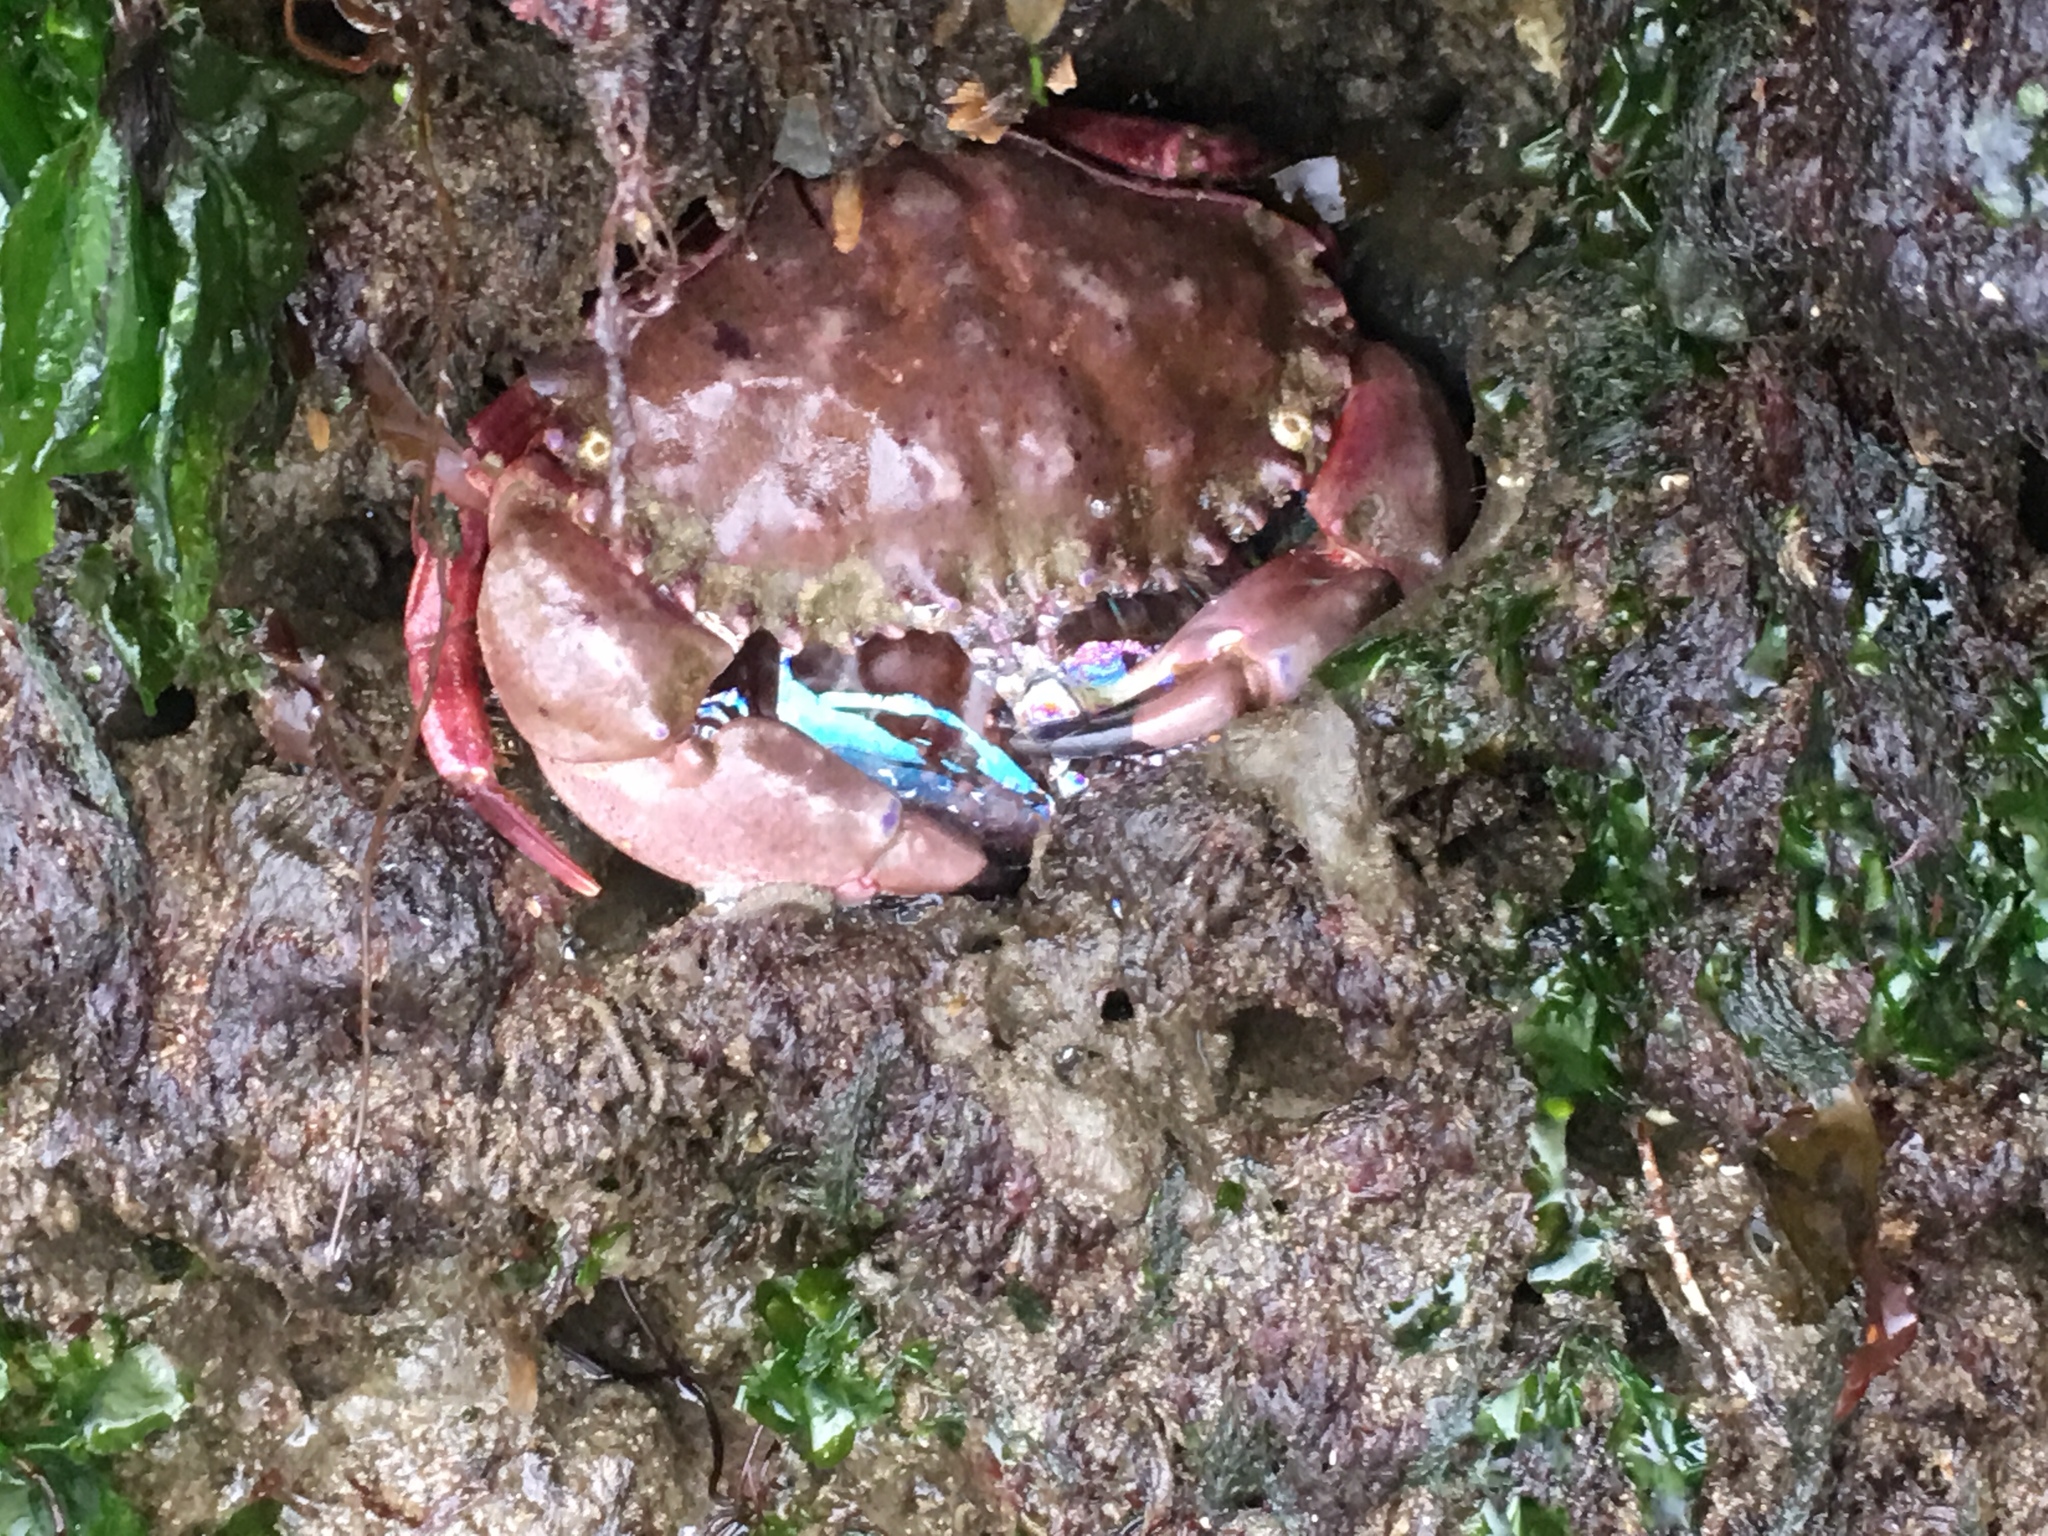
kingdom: Animalia
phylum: Arthropoda
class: Malacostraca
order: Decapoda
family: Cancridae
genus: Romaleon
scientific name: Romaleon antennarium
